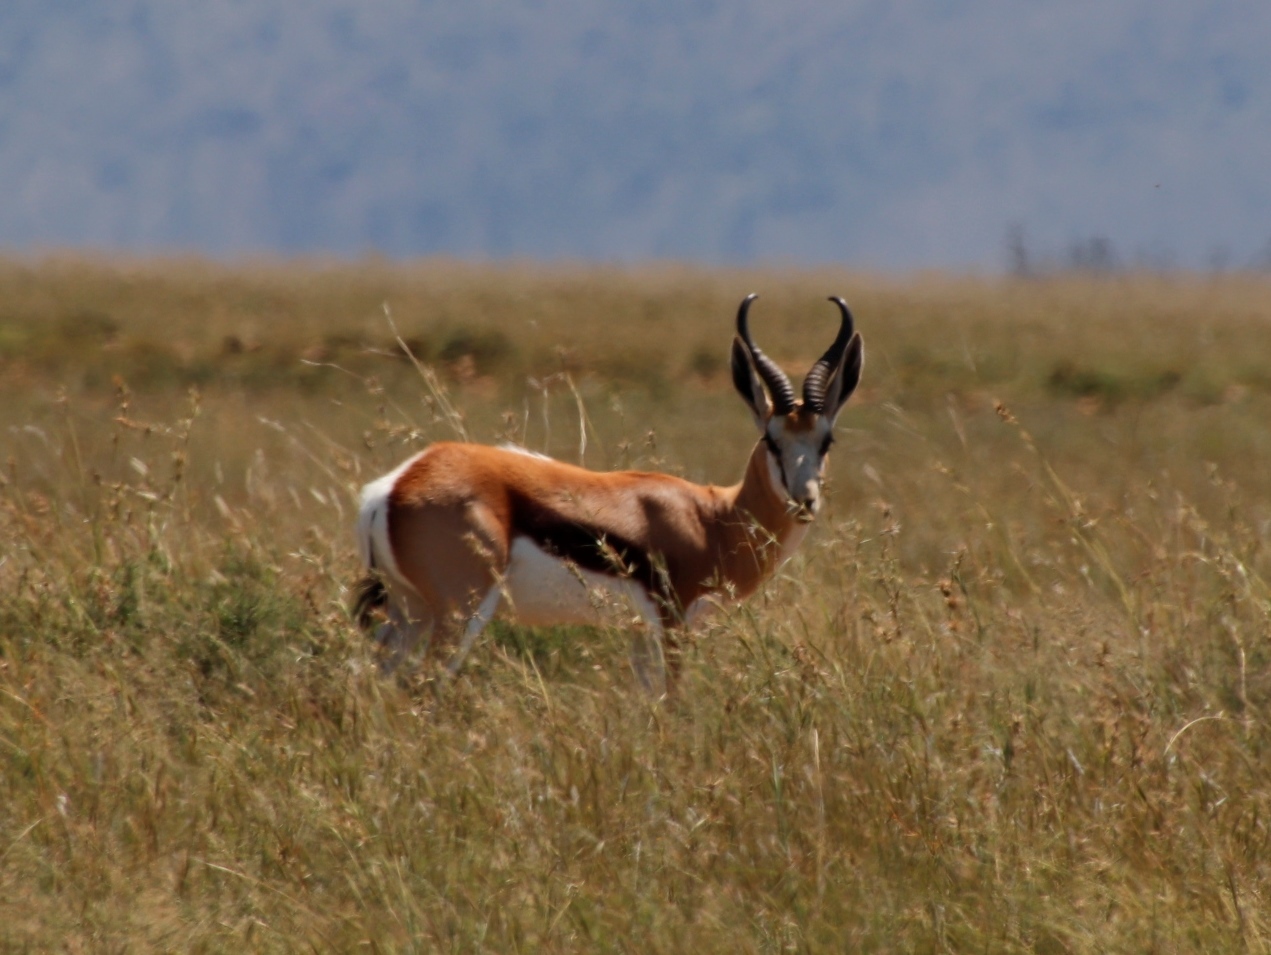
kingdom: Animalia
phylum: Chordata
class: Mammalia
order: Artiodactyla
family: Bovidae
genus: Antidorcas
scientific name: Antidorcas marsupialis
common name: Springbok
